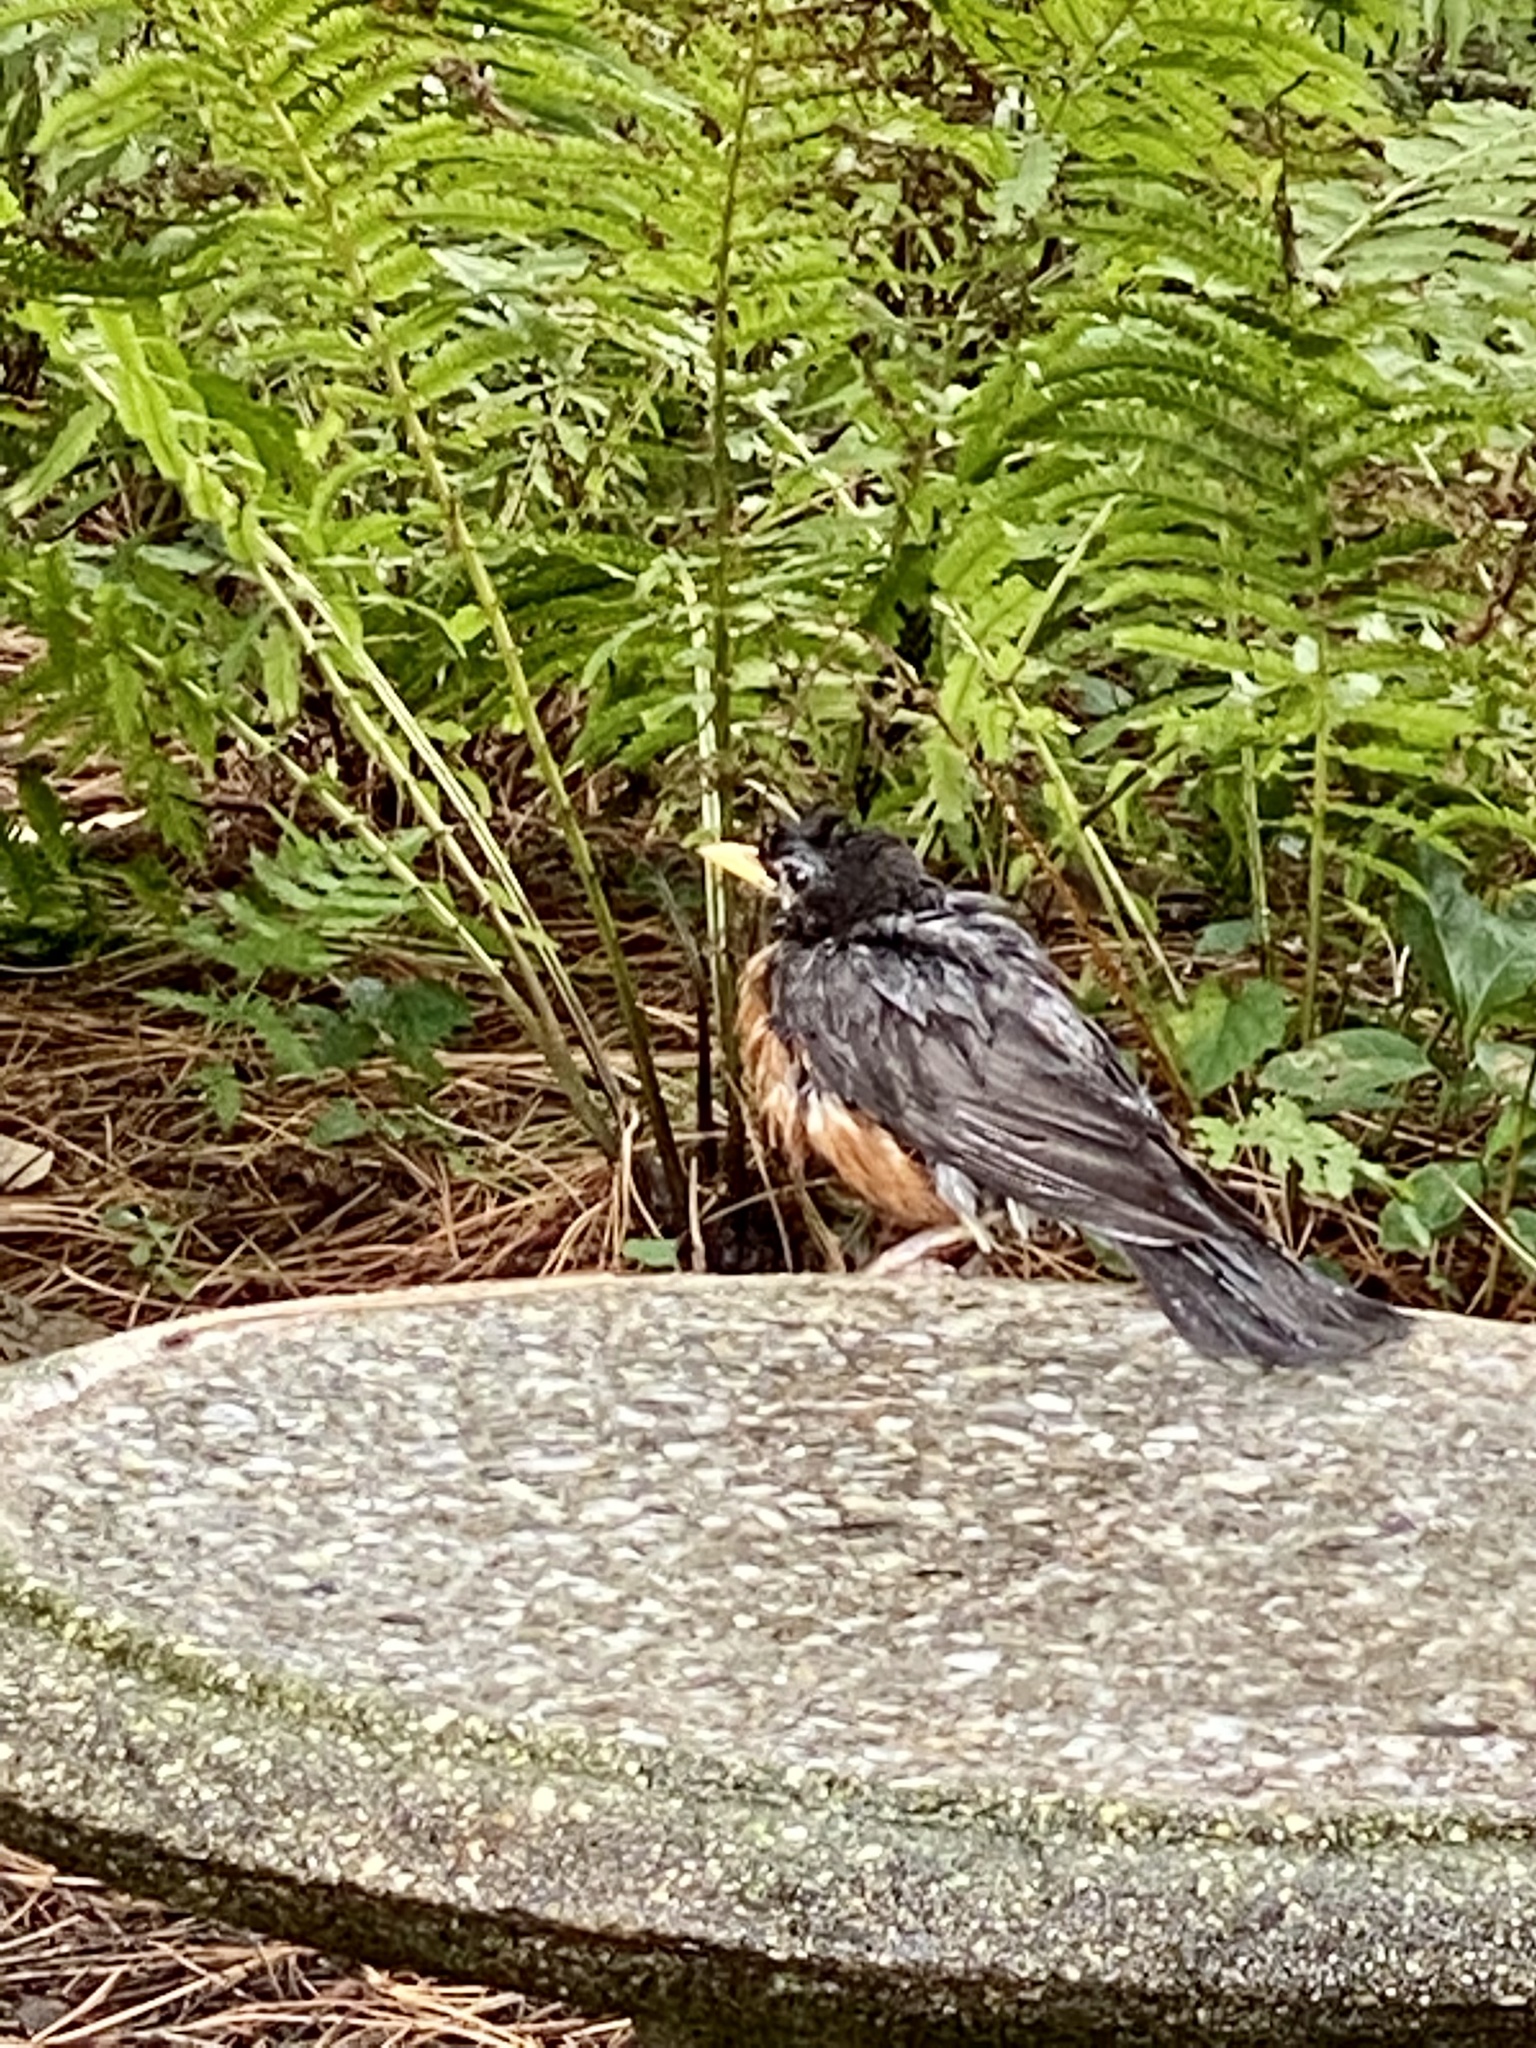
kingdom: Animalia
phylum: Chordata
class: Aves
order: Passeriformes
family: Turdidae
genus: Turdus
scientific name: Turdus migratorius
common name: American robin
